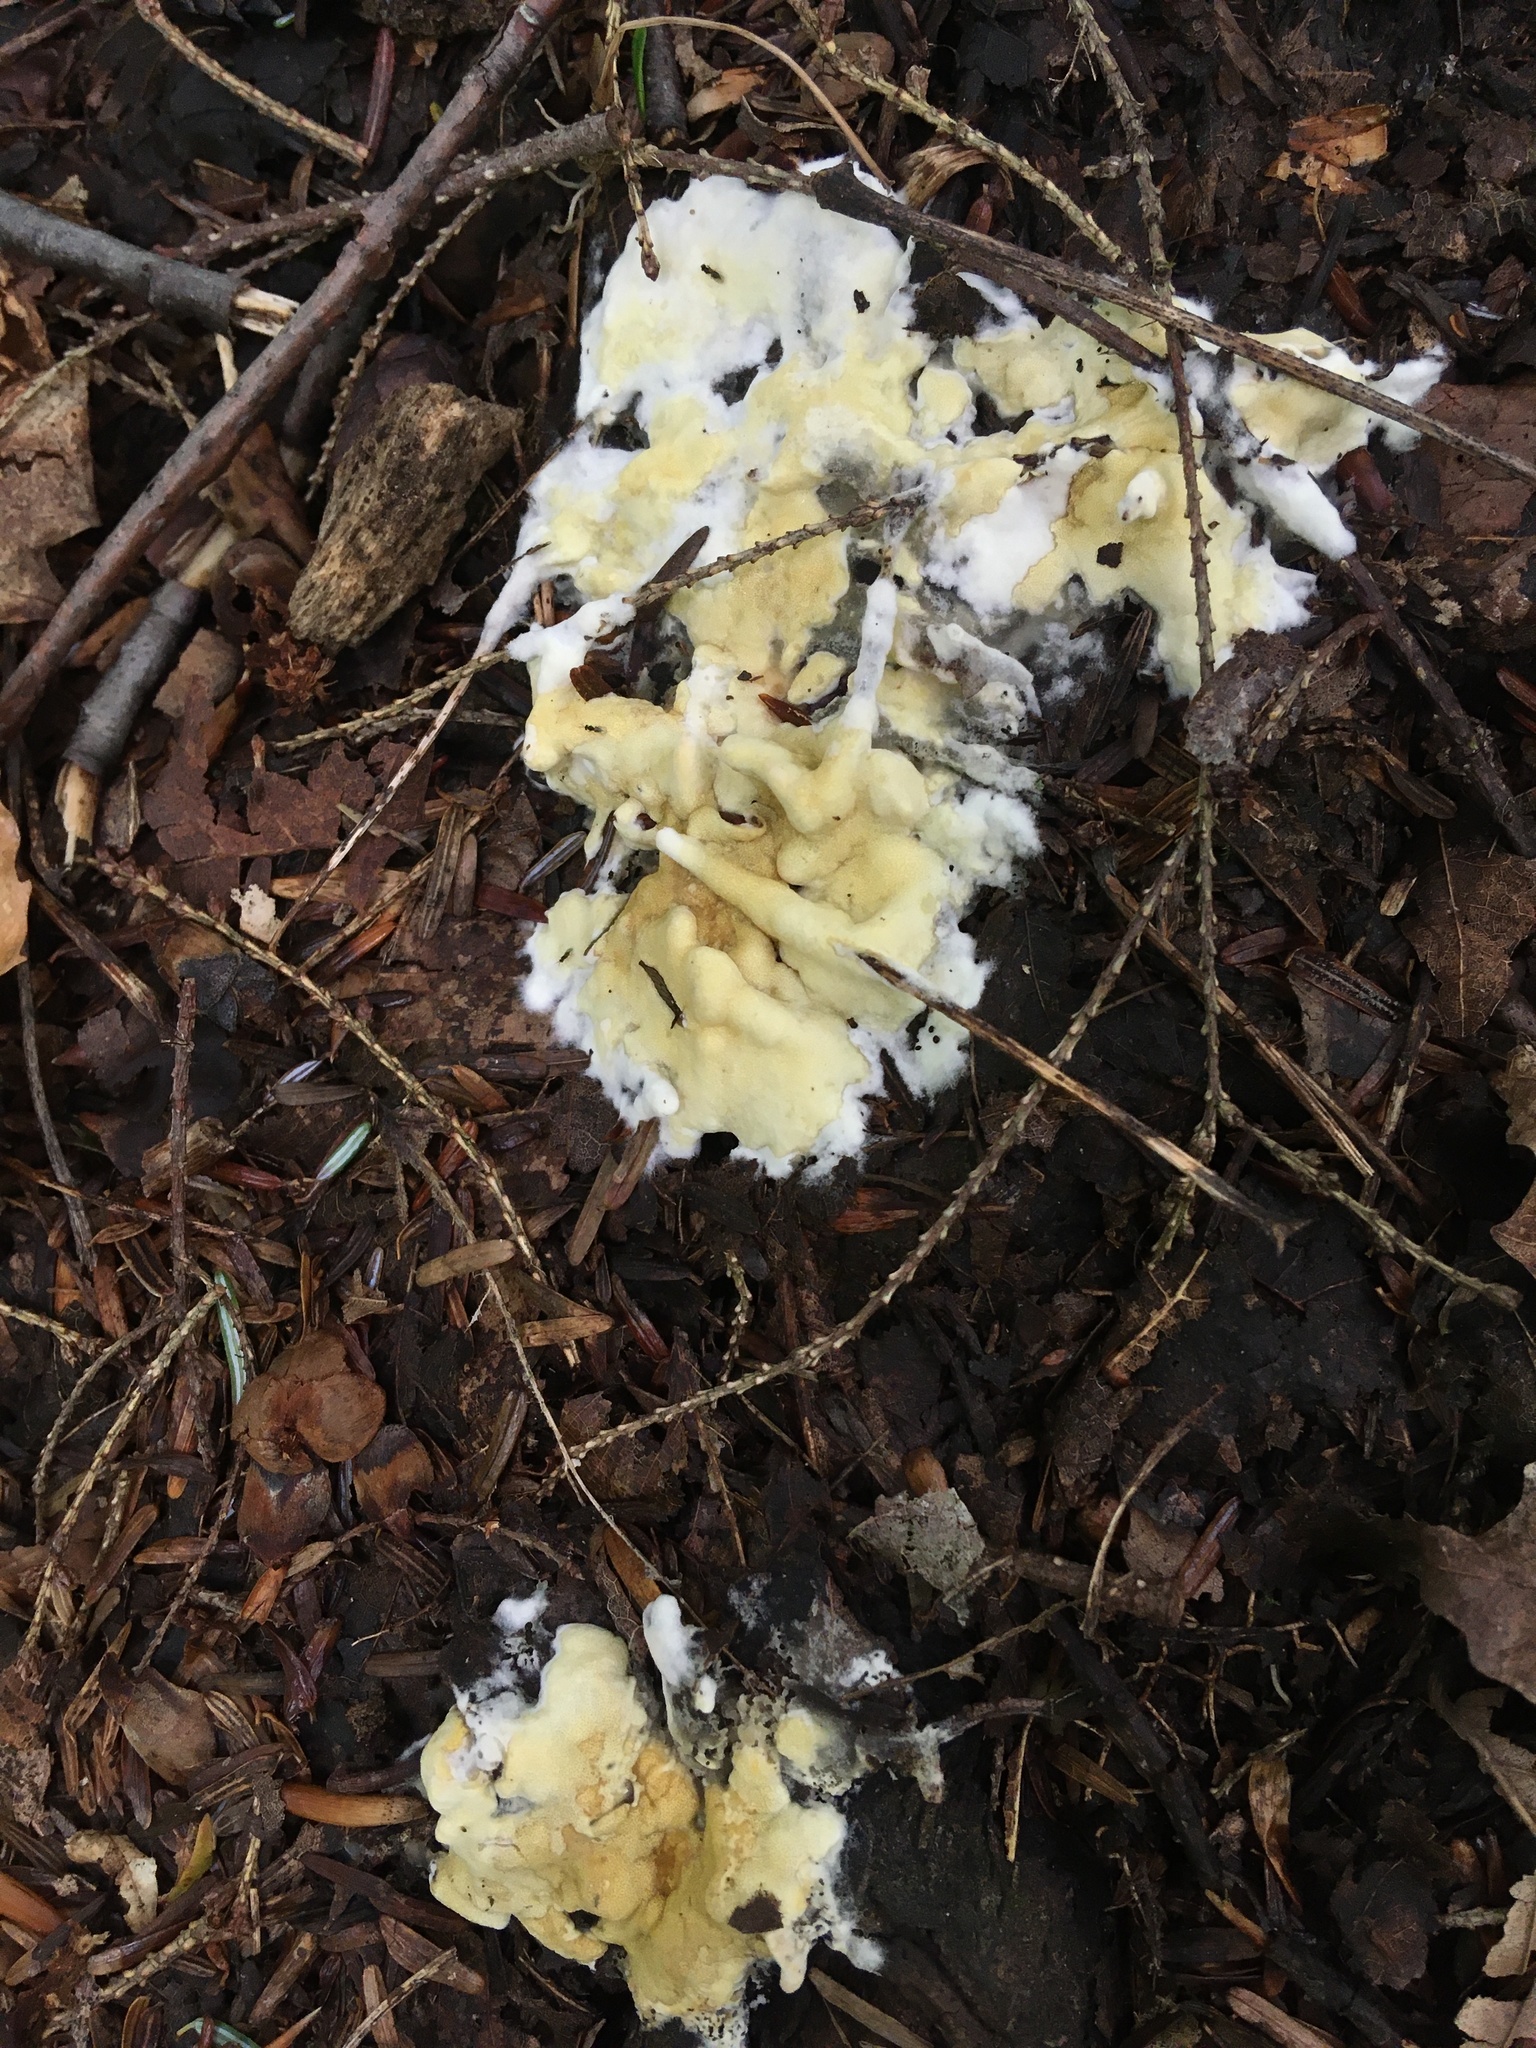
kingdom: Fungi
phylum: Ascomycota
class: Sordariomycetes
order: Hypocreales
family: Hypocreaceae
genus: Trichoderma
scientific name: Trichoderma citrinum
